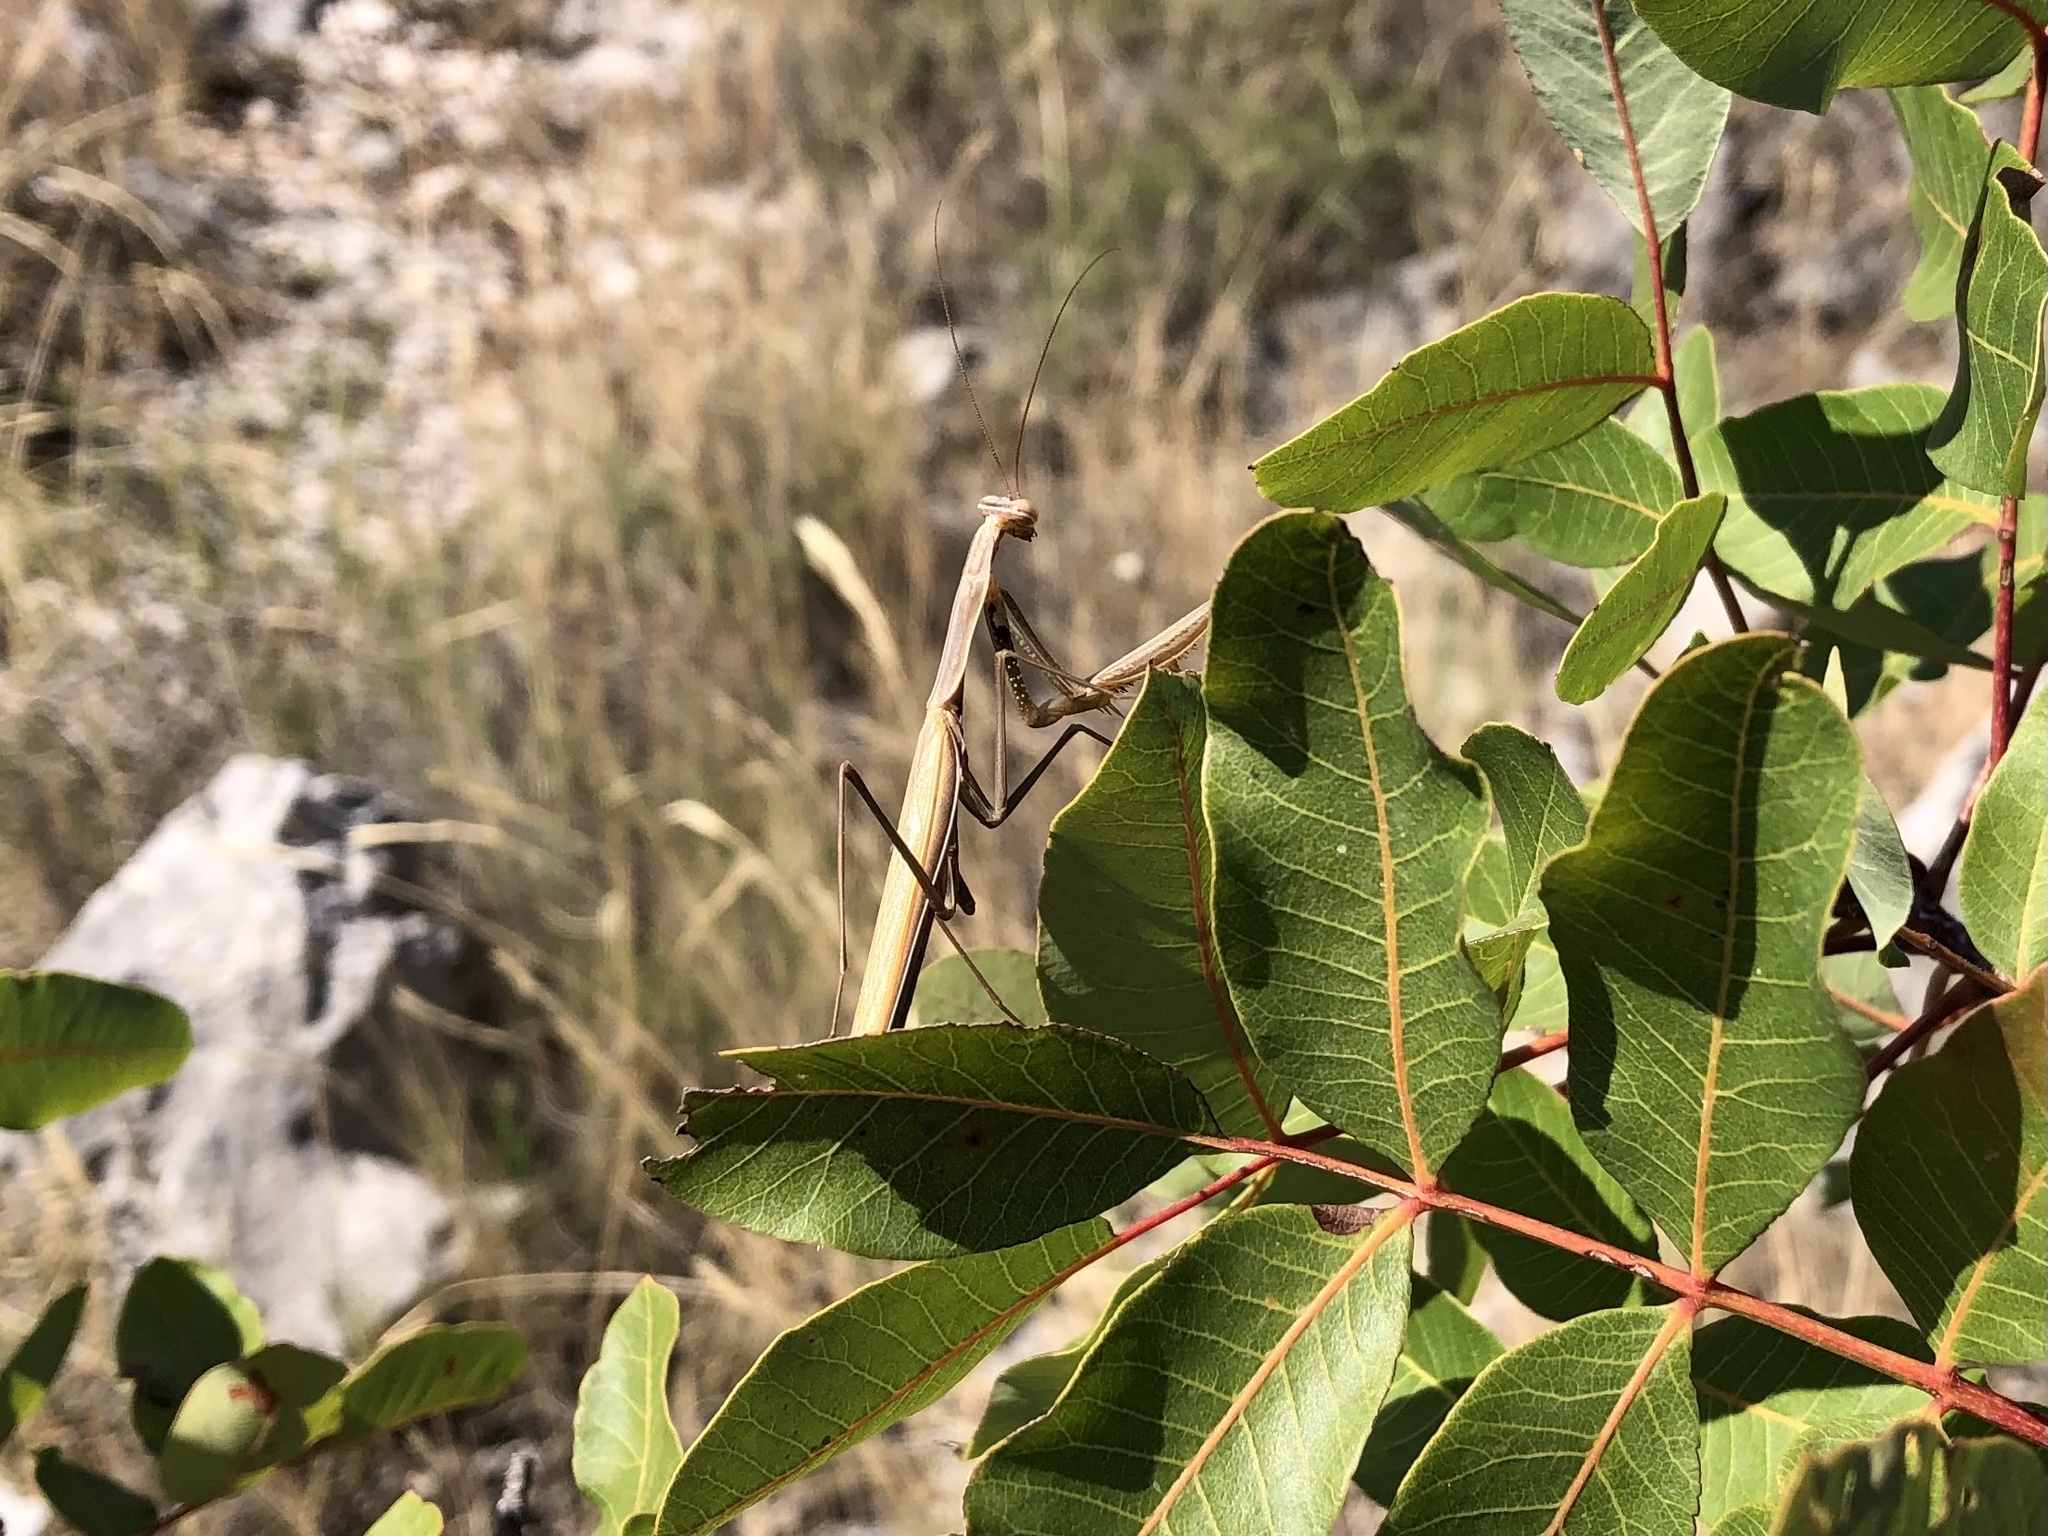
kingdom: Animalia
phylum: Arthropoda
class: Insecta
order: Mantodea
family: Mantidae
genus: Mantis
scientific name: Mantis religiosa
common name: Praying mantis
